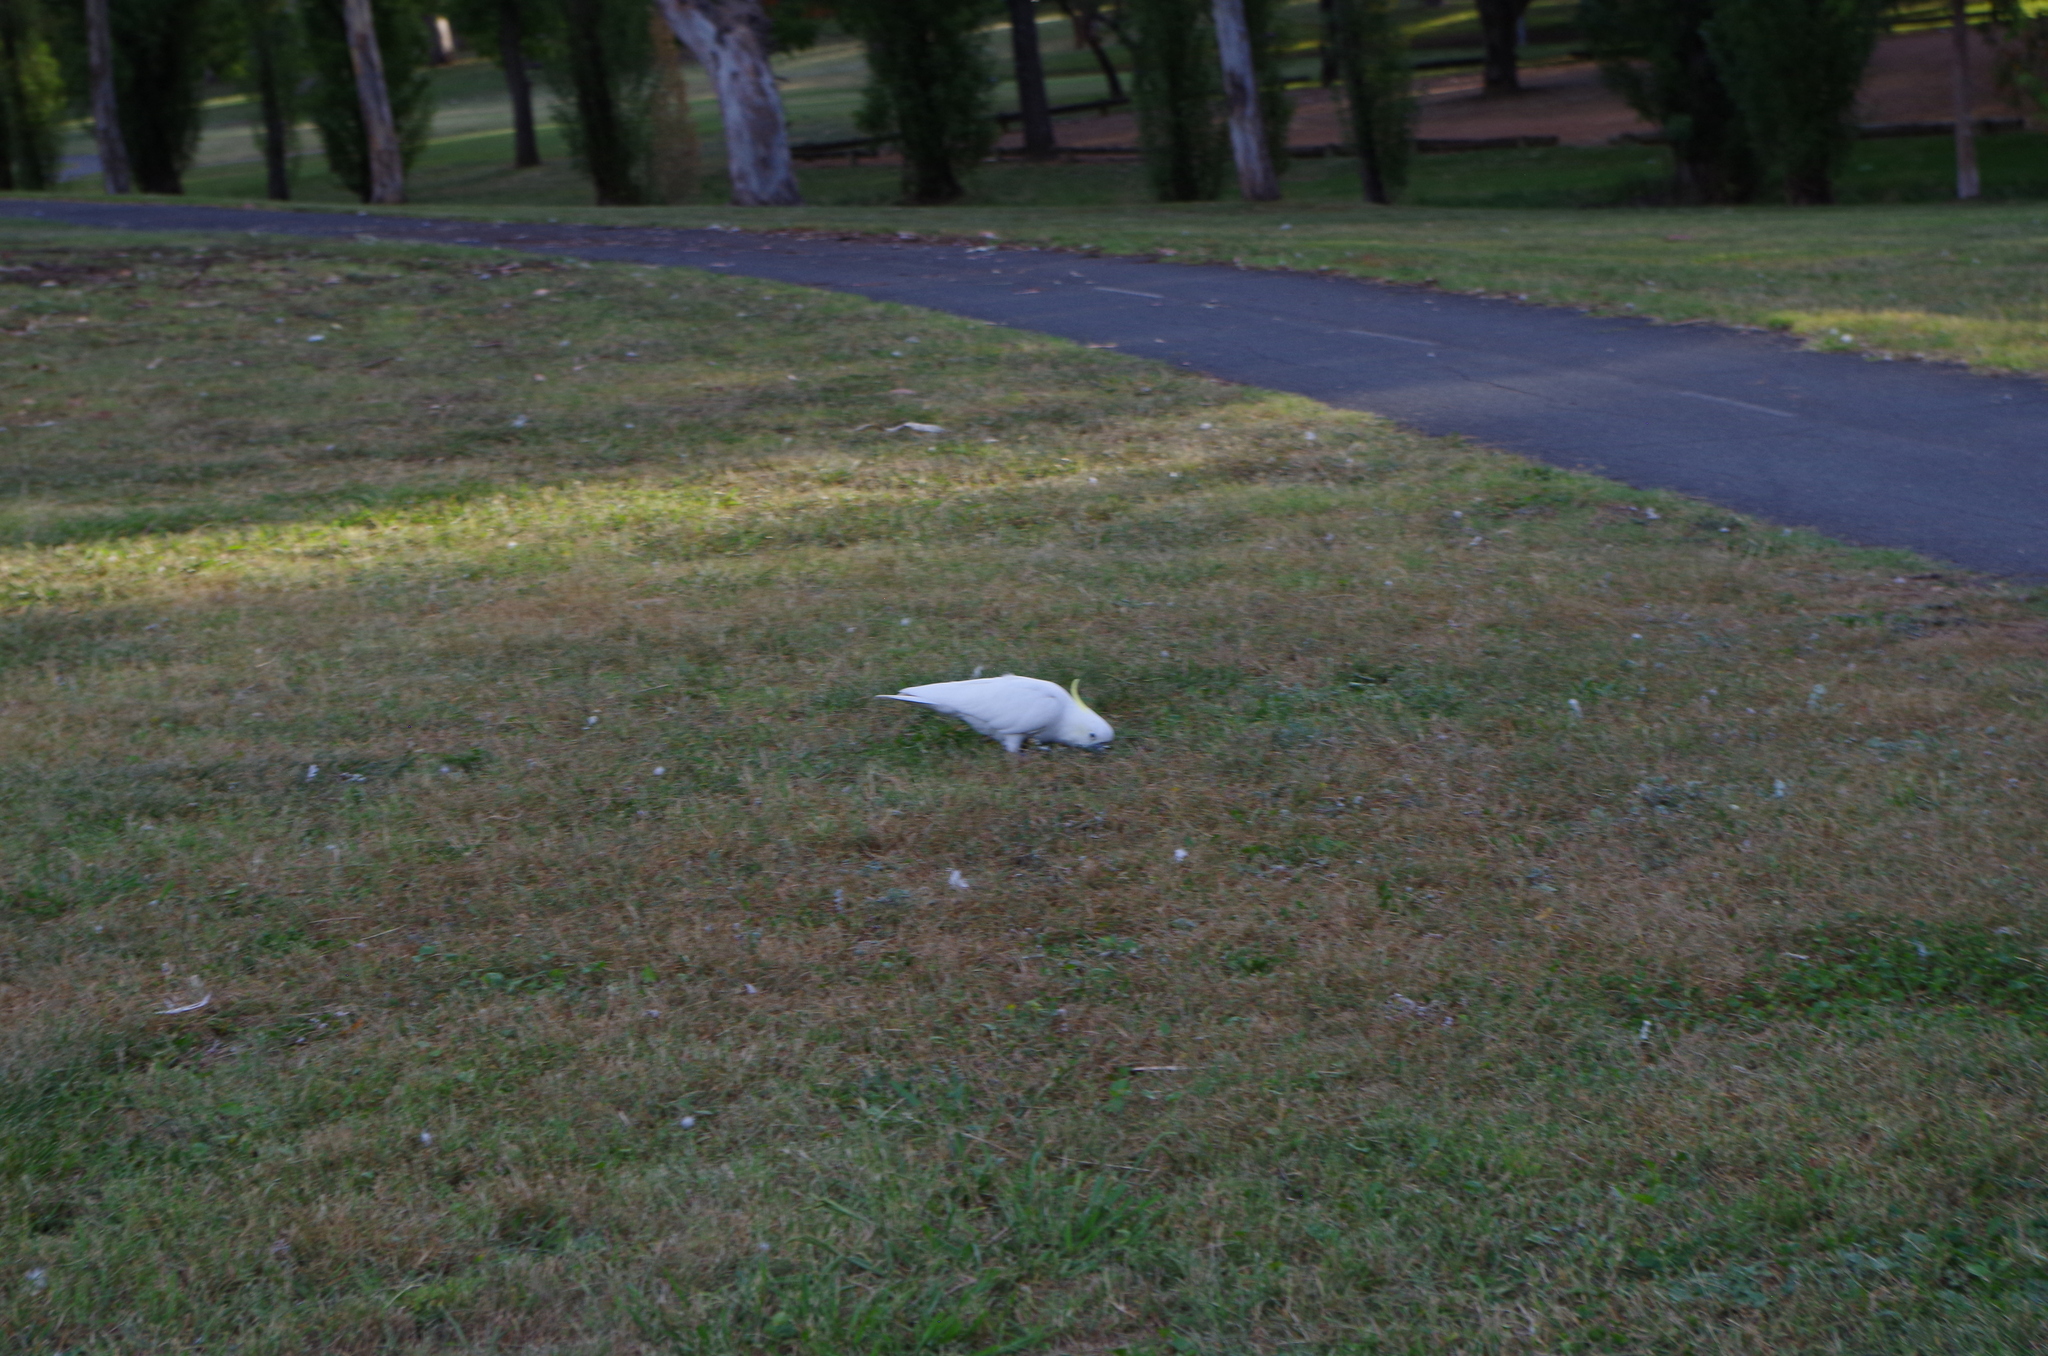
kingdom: Animalia
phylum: Chordata
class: Aves
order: Psittaciformes
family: Psittacidae
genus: Cacatua
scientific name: Cacatua galerita
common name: Sulphur-crested cockatoo
